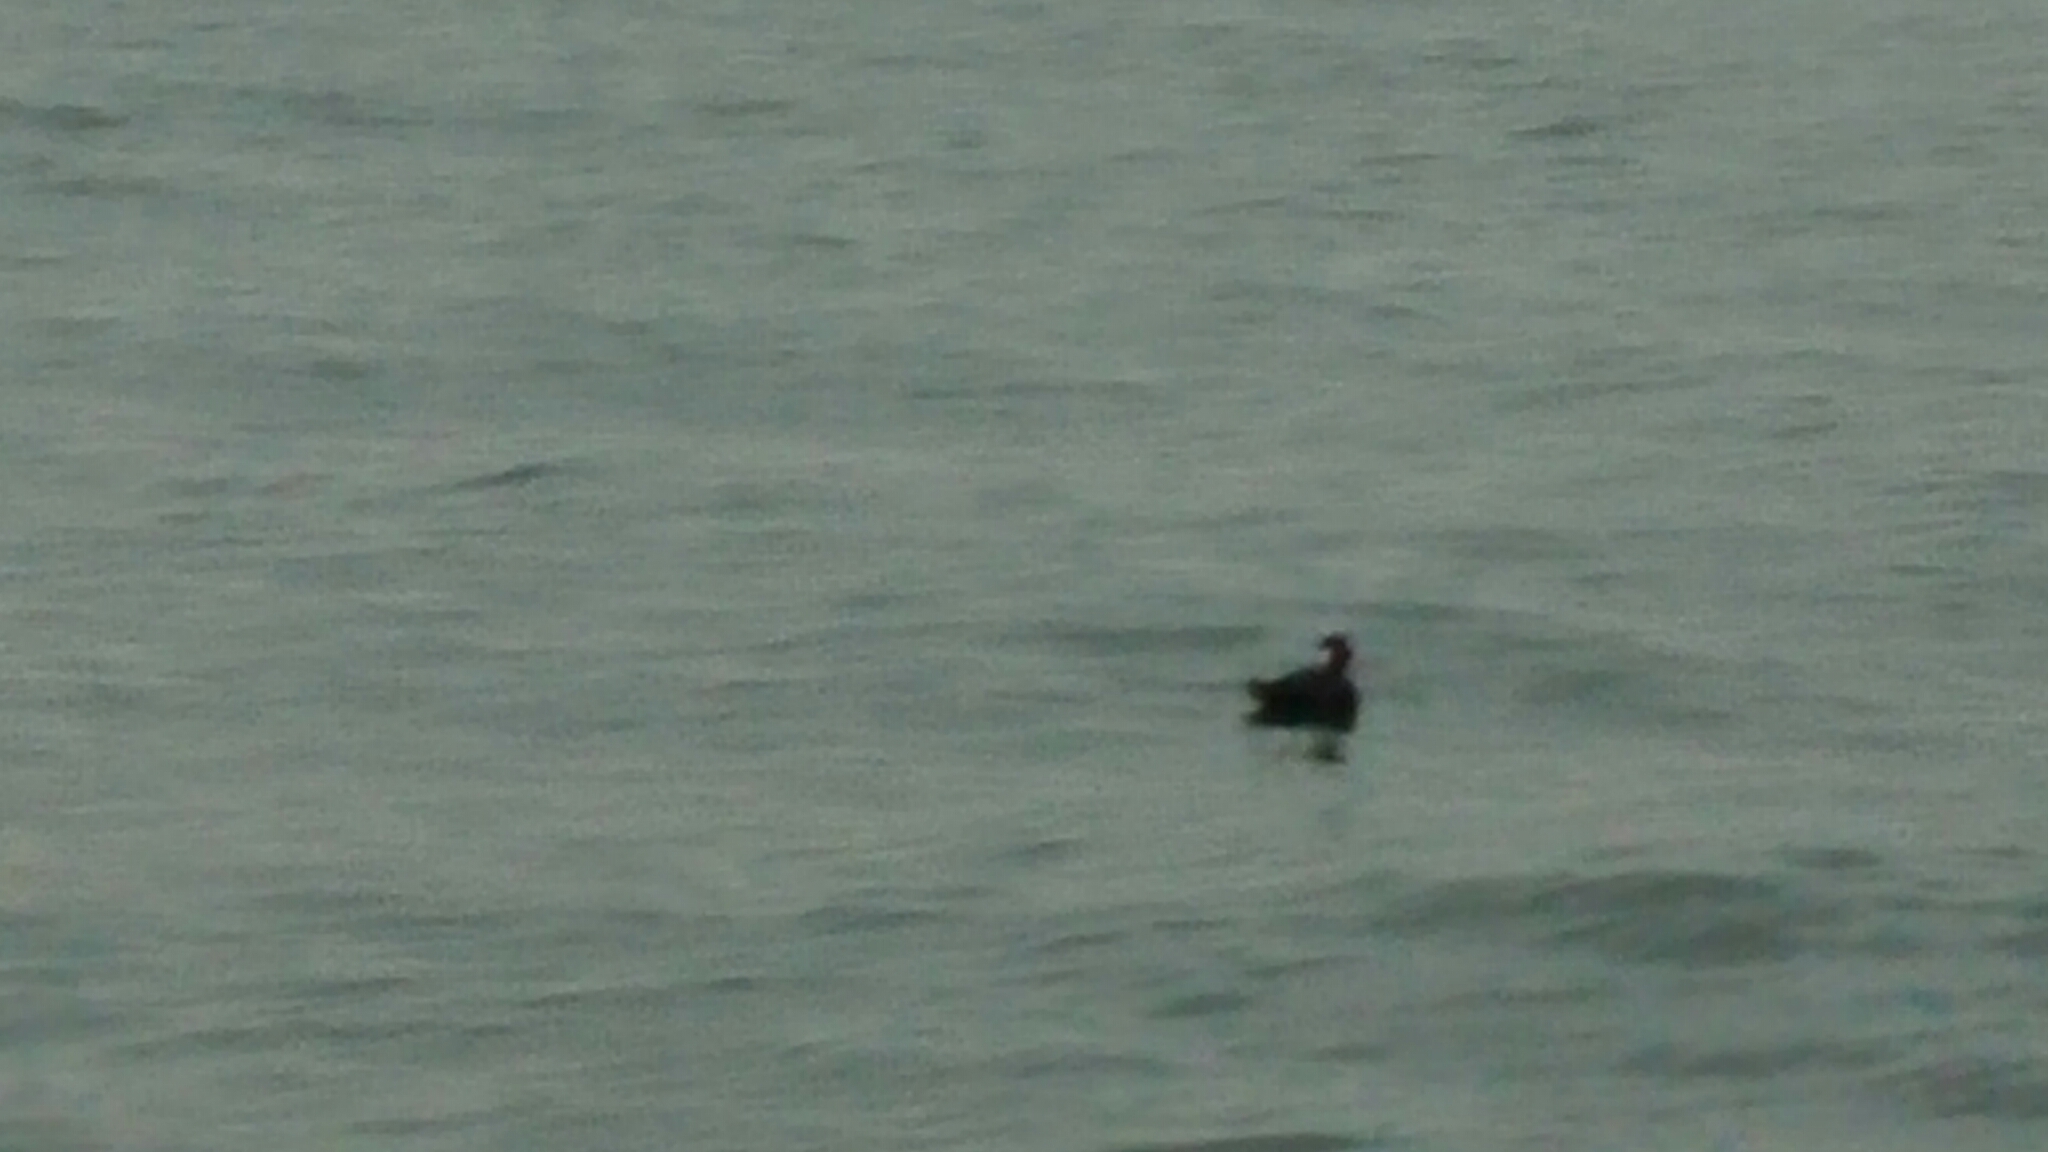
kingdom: Animalia
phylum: Chordata
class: Aves
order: Anseriformes
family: Anatidae
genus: Melanitta
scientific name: Melanitta perspicillata
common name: Surf scoter
